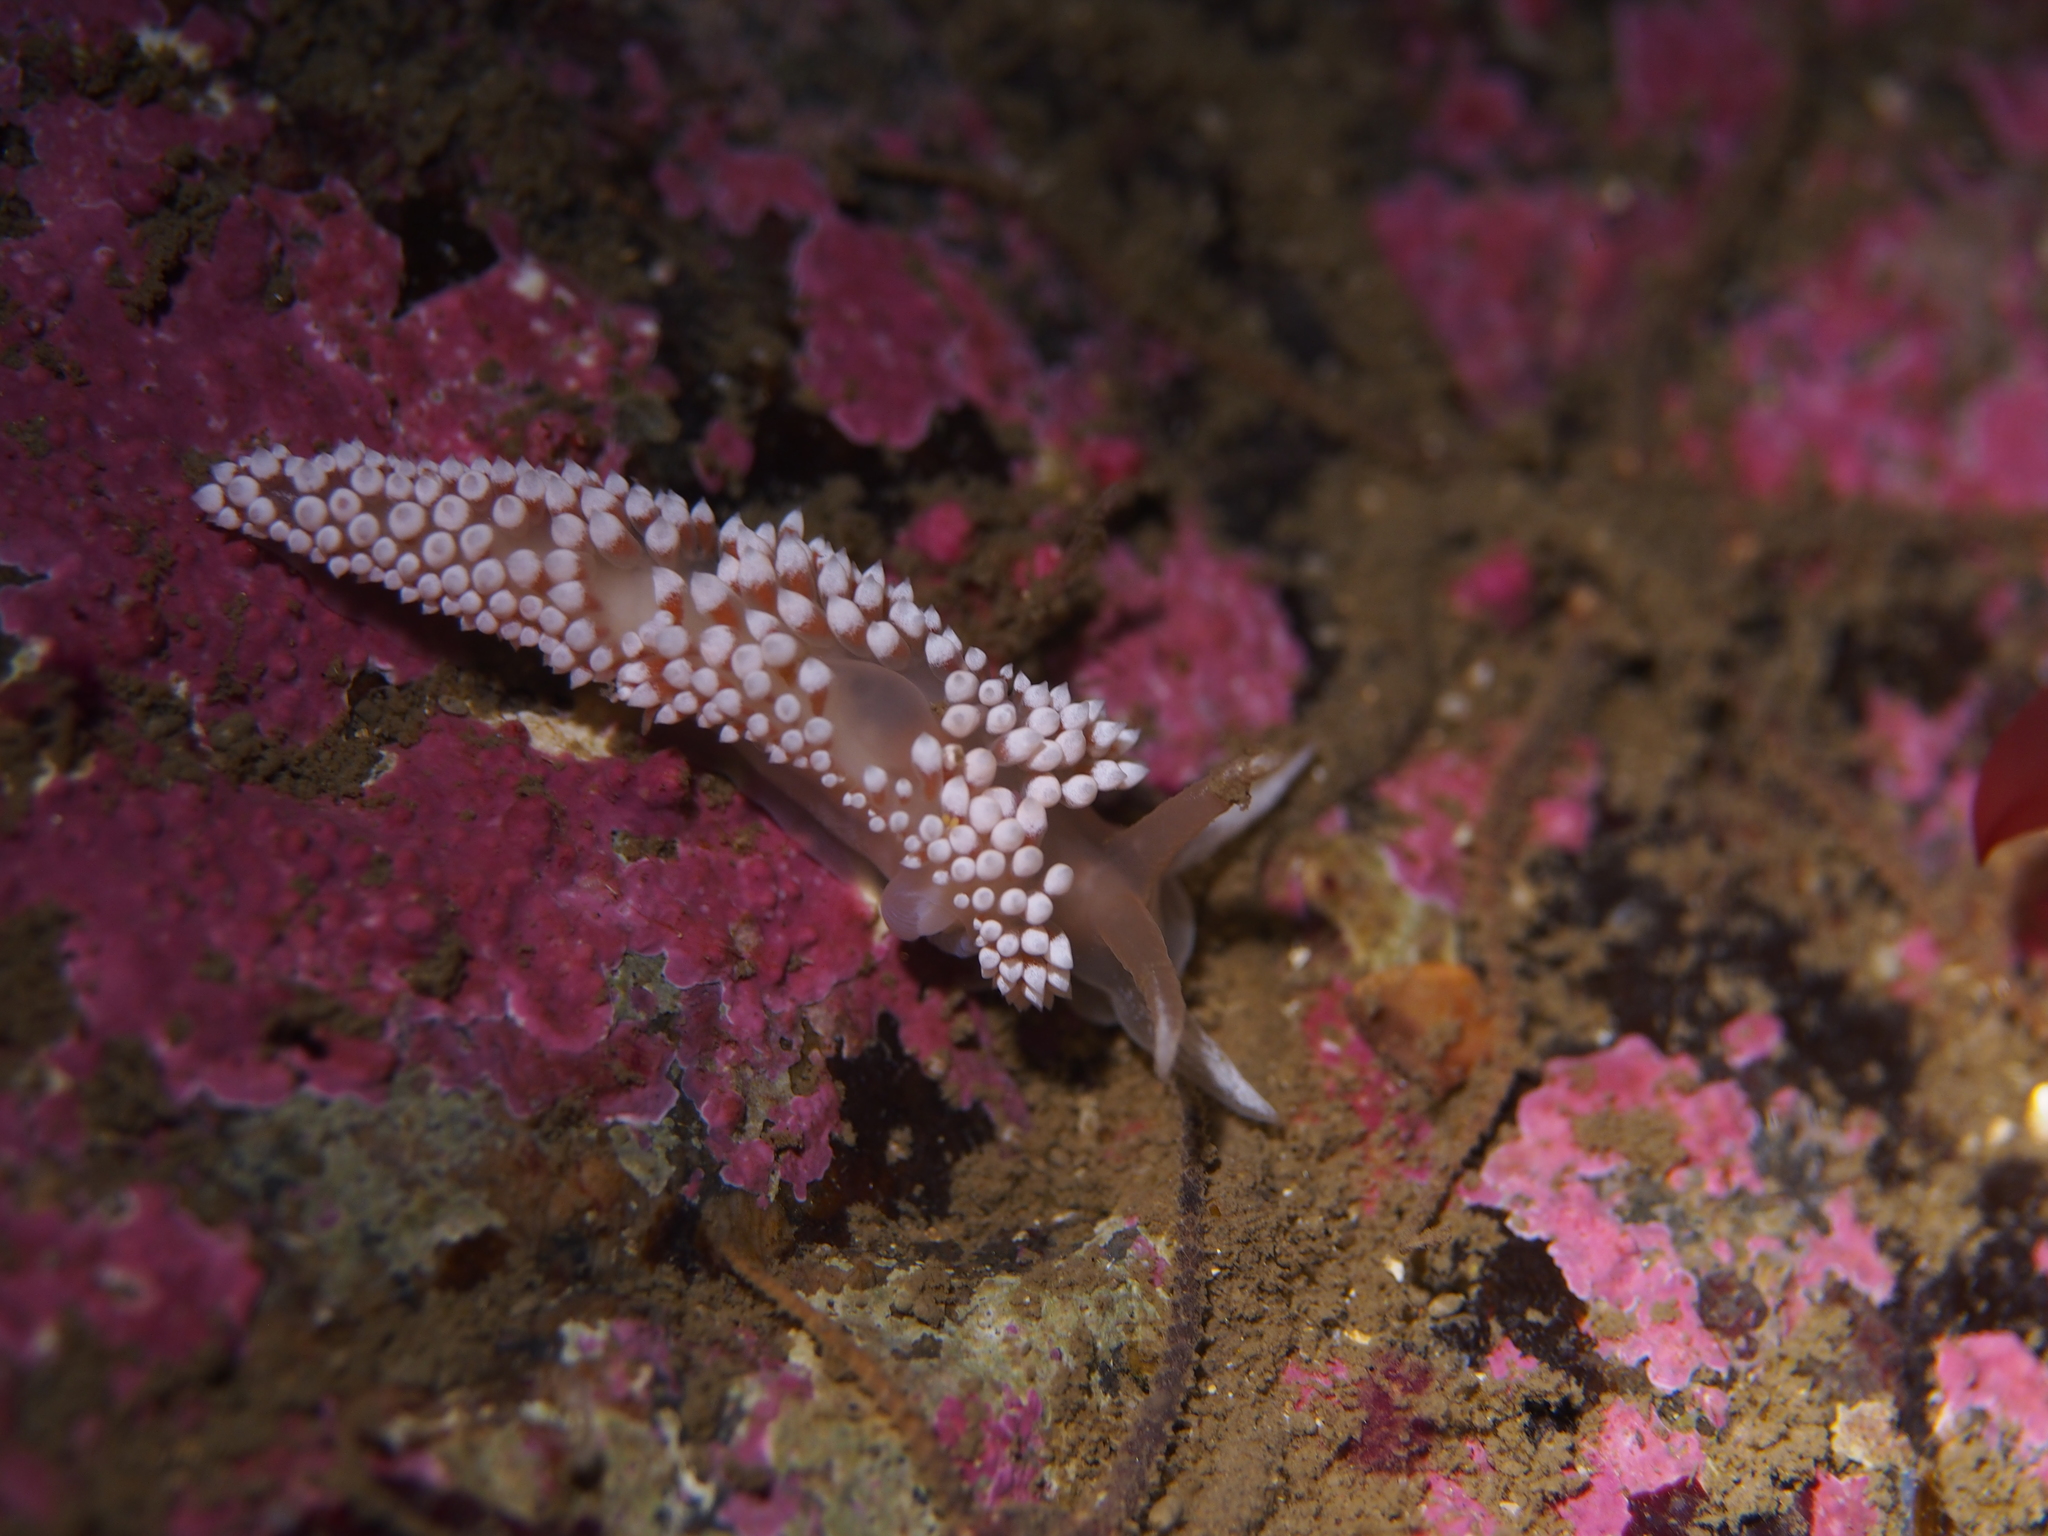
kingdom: Animalia
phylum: Mollusca
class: Gastropoda
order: Nudibranchia
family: Coryphellidae
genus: Coryphella
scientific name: Coryphella verrucosa
